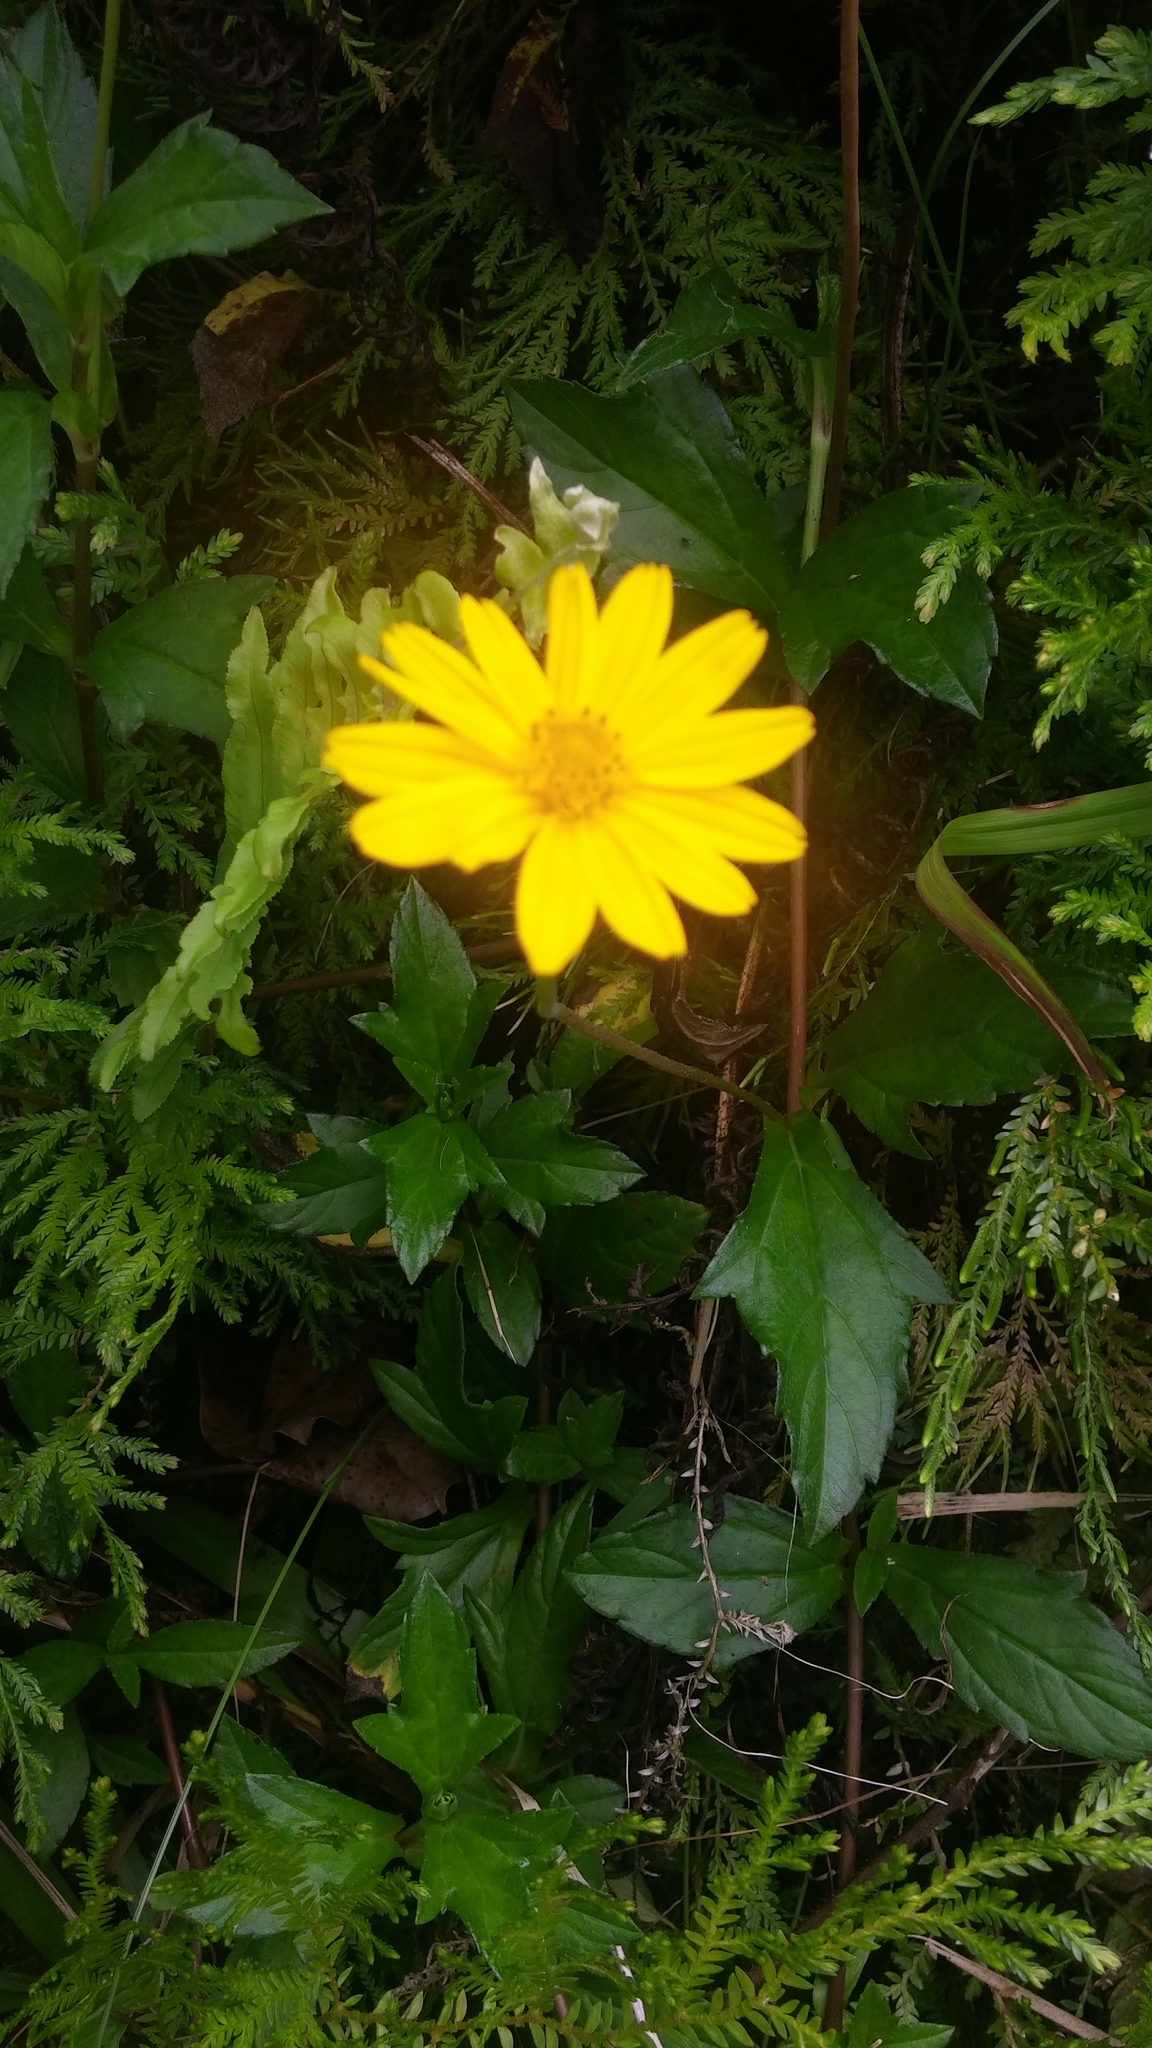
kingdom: Plantae
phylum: Tracheophyta
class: Magnoliopsida
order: Asterales
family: Asteraceae
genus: Sphagneticola
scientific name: Sphagneticola trilobata
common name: Bay biscayne creeping-oxeye
